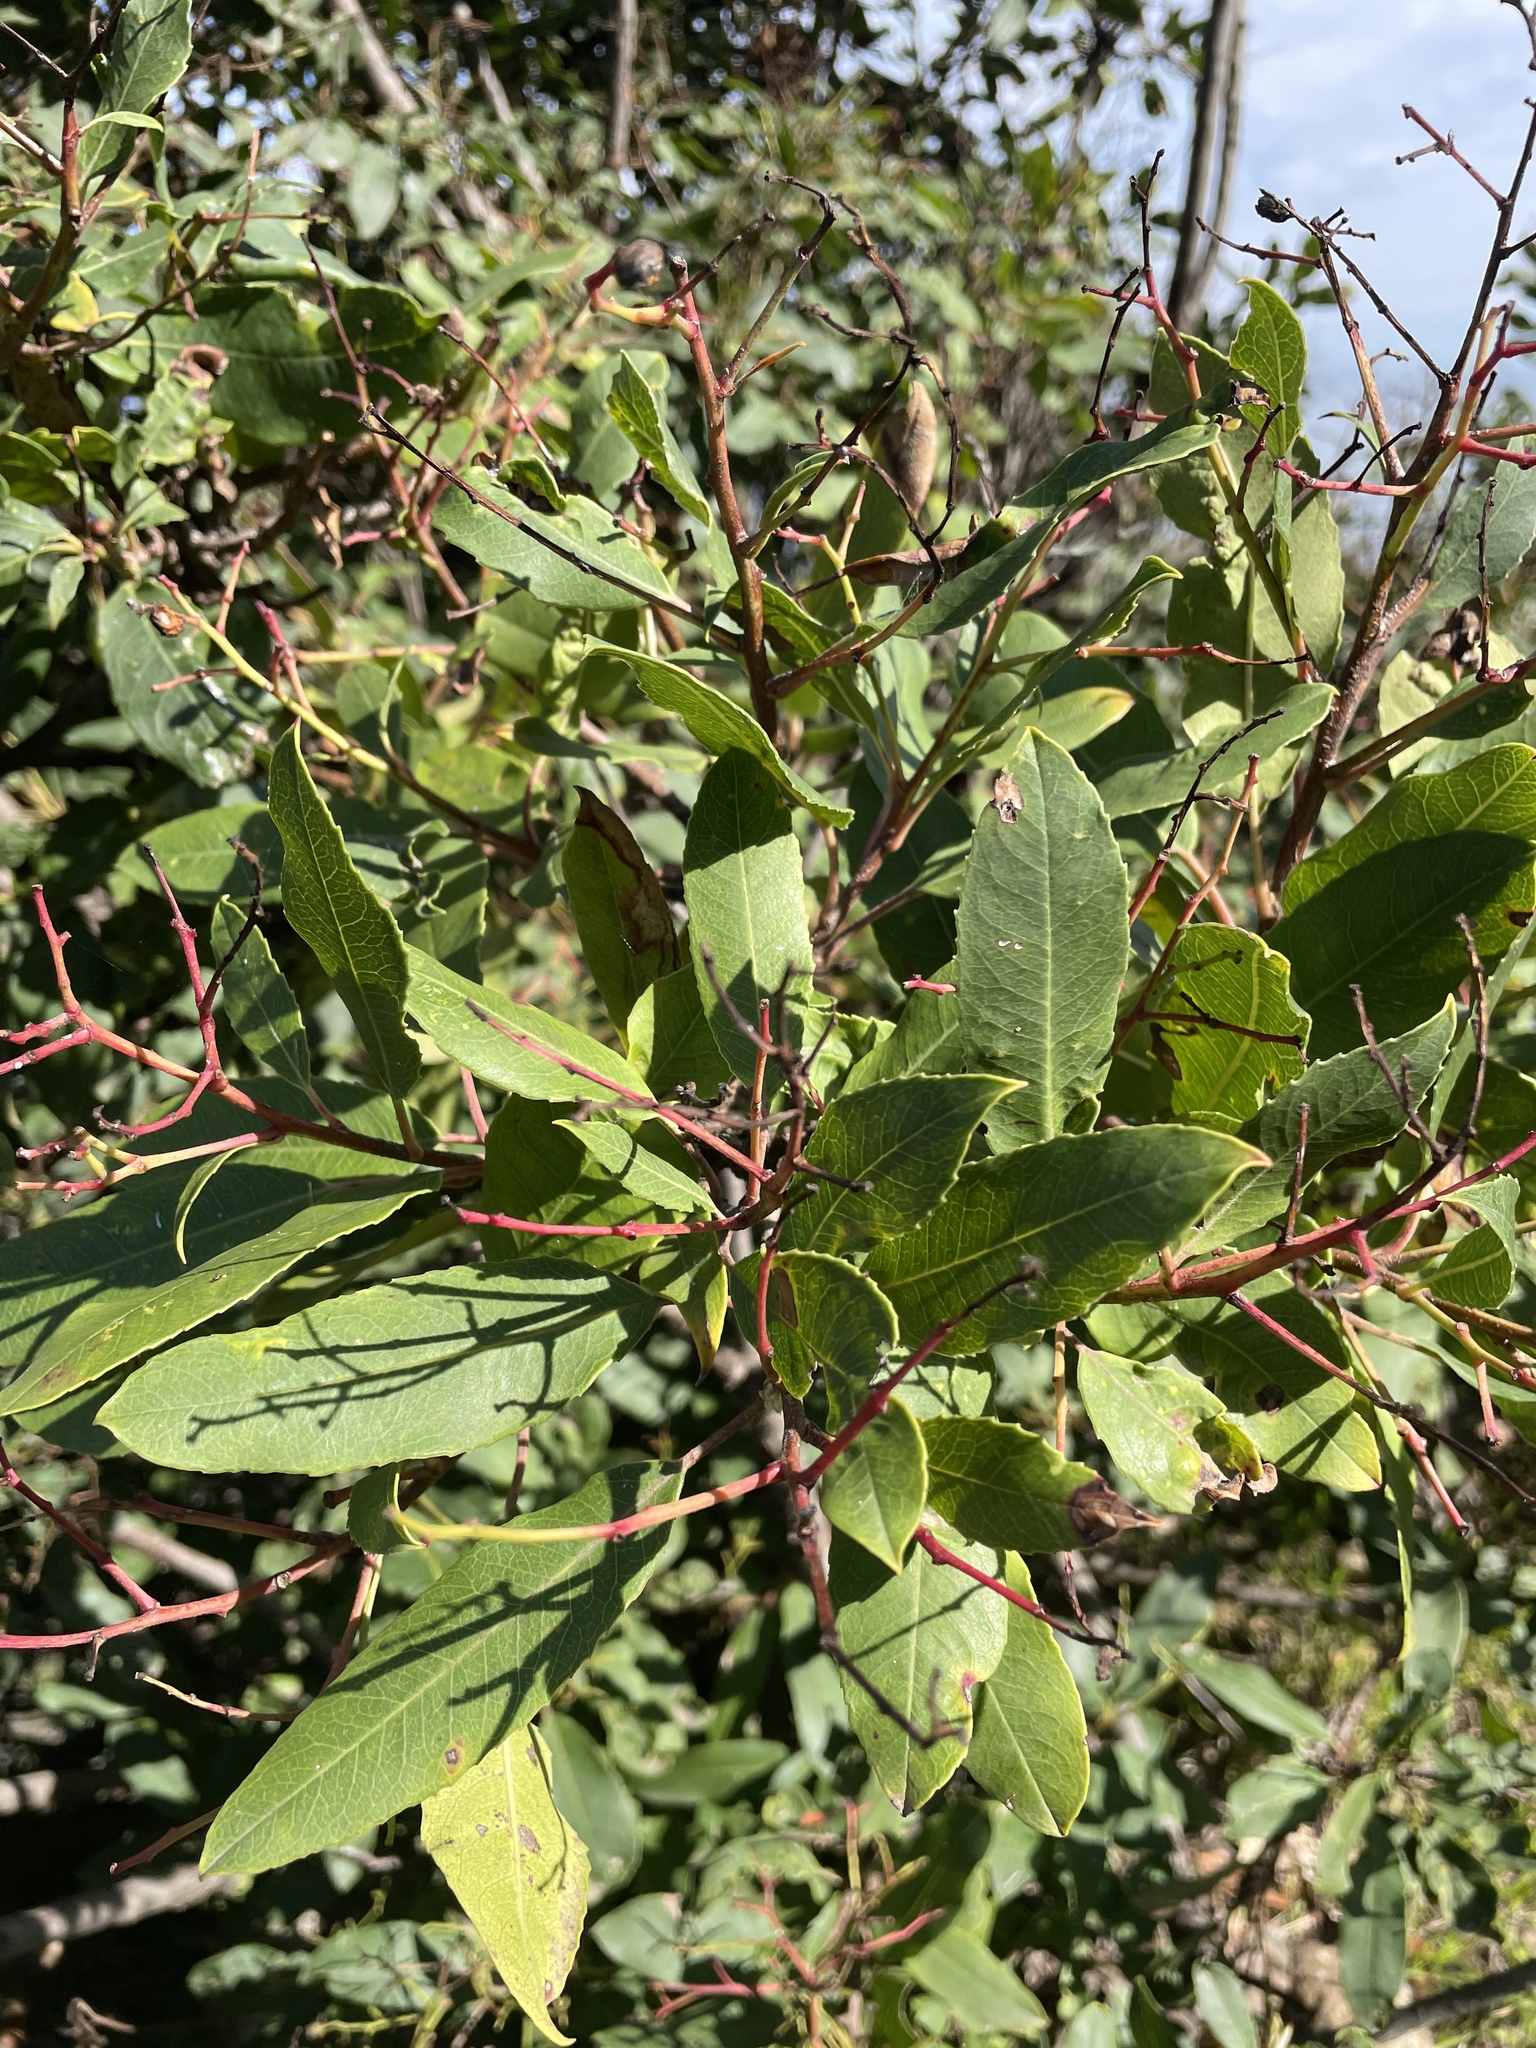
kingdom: Plantae
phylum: Tracheophyta
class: Magnoliopsida
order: Rosales
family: Rosaceae
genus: Heteromeles
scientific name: Heteromeles arbutifolia
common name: California-holly
